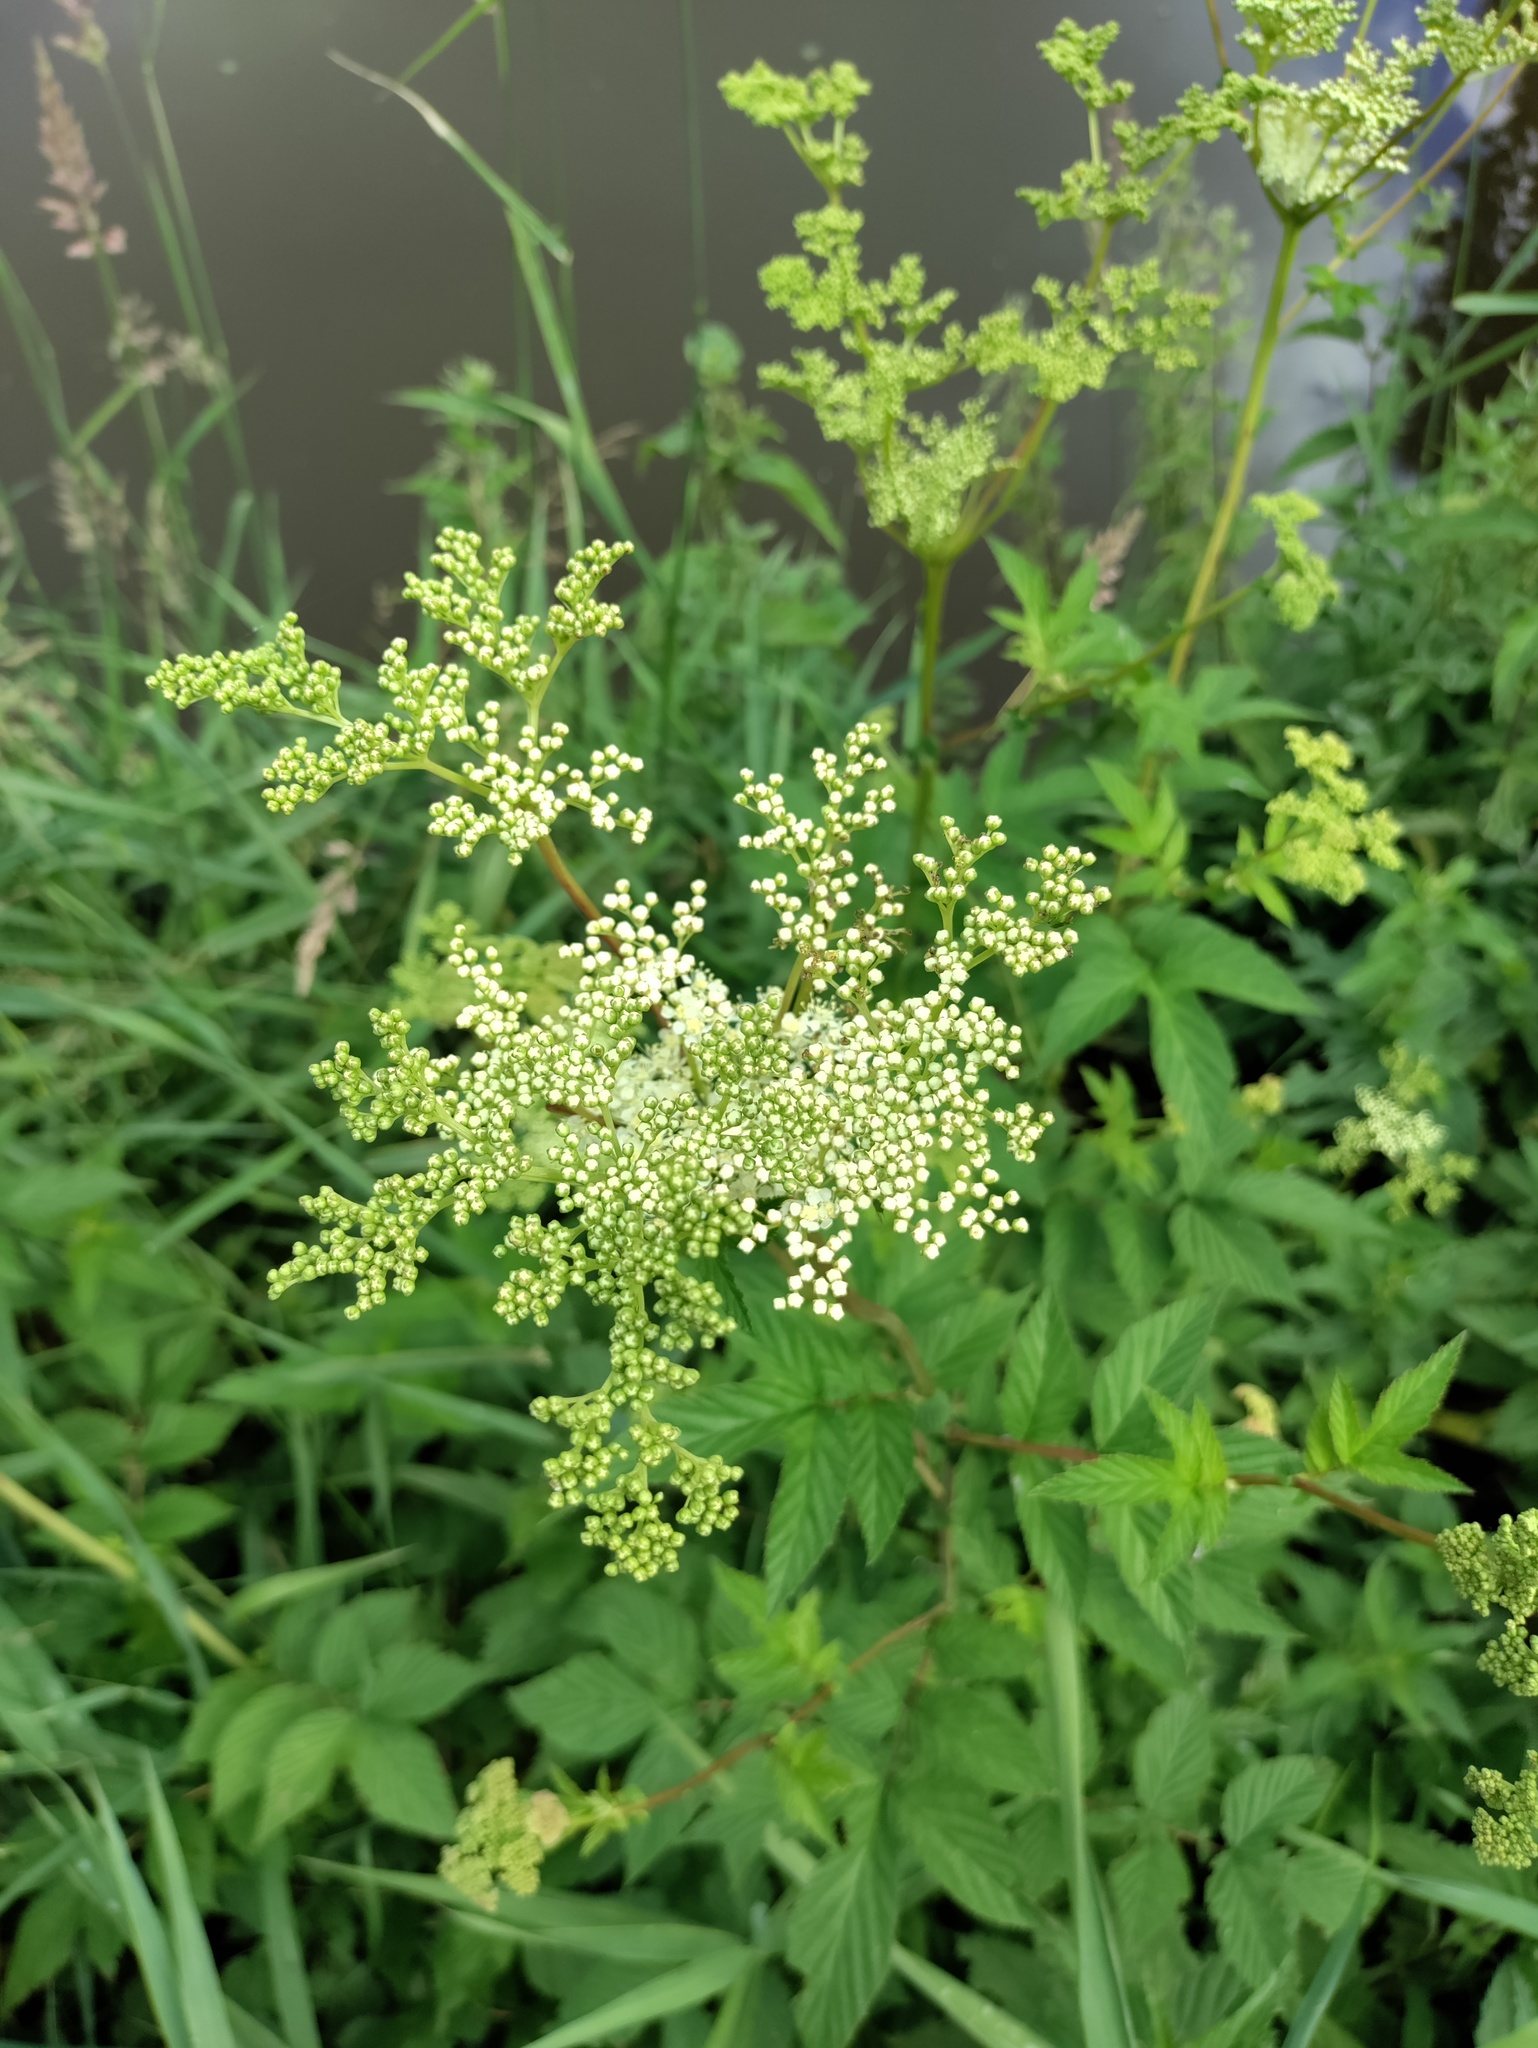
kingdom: Plantae
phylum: Tracheophyta
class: Magnoliopsida
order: Rosales
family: Rosaceae
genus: Filipendula
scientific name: Filipendula ulmaria
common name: Meadowsweet
